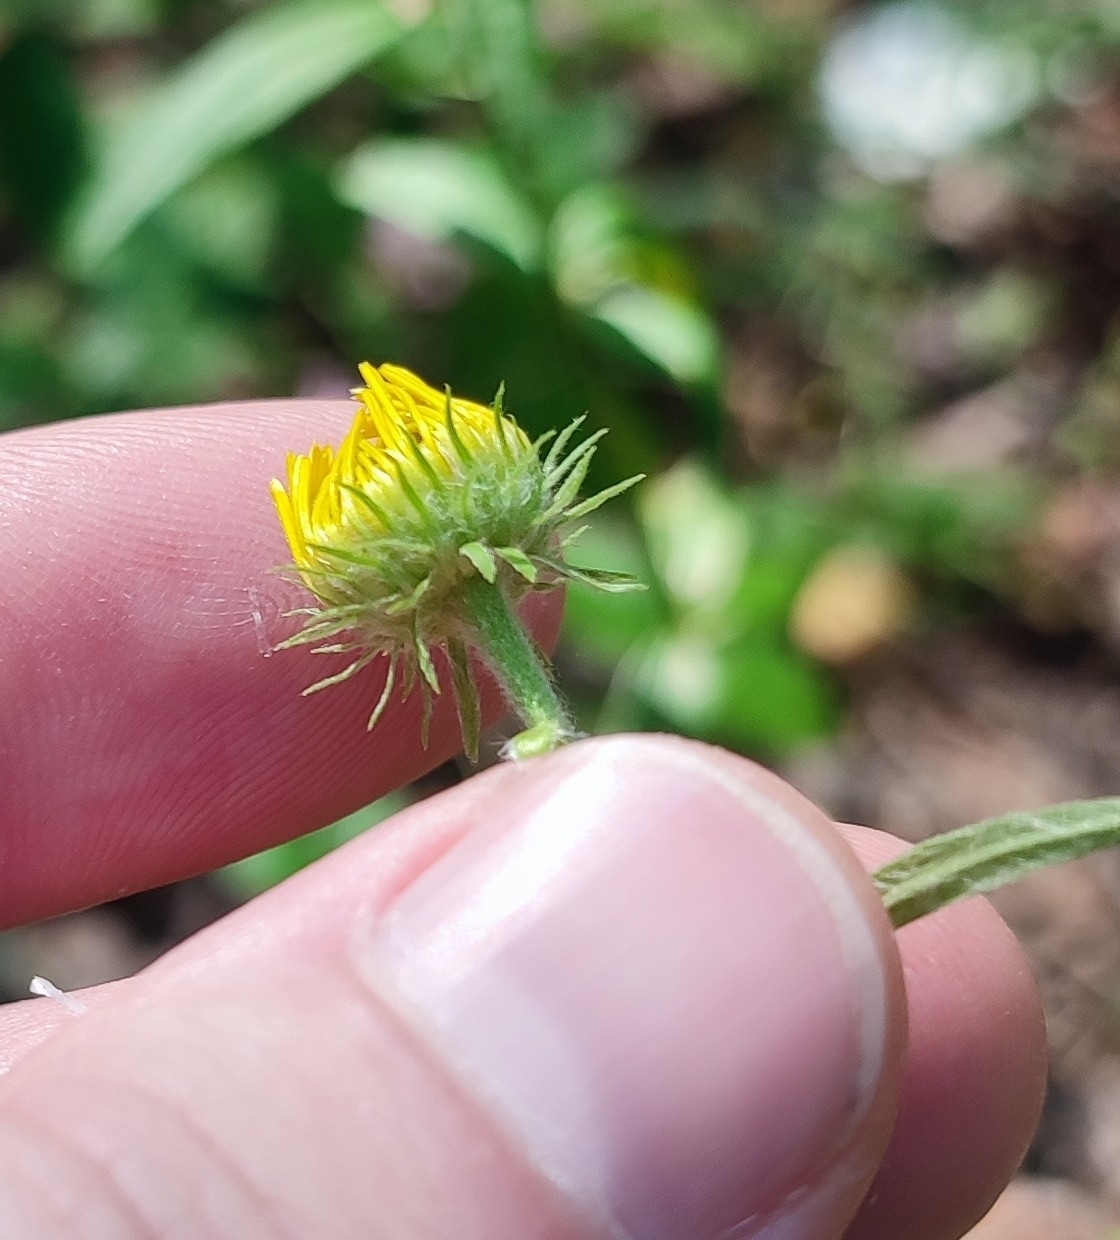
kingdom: Plantae
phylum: Tracheophyta
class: Magnoliopsida
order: Asterales
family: Asteraceae
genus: Pentanema
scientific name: Pentanema britannicum
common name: British elecampane
